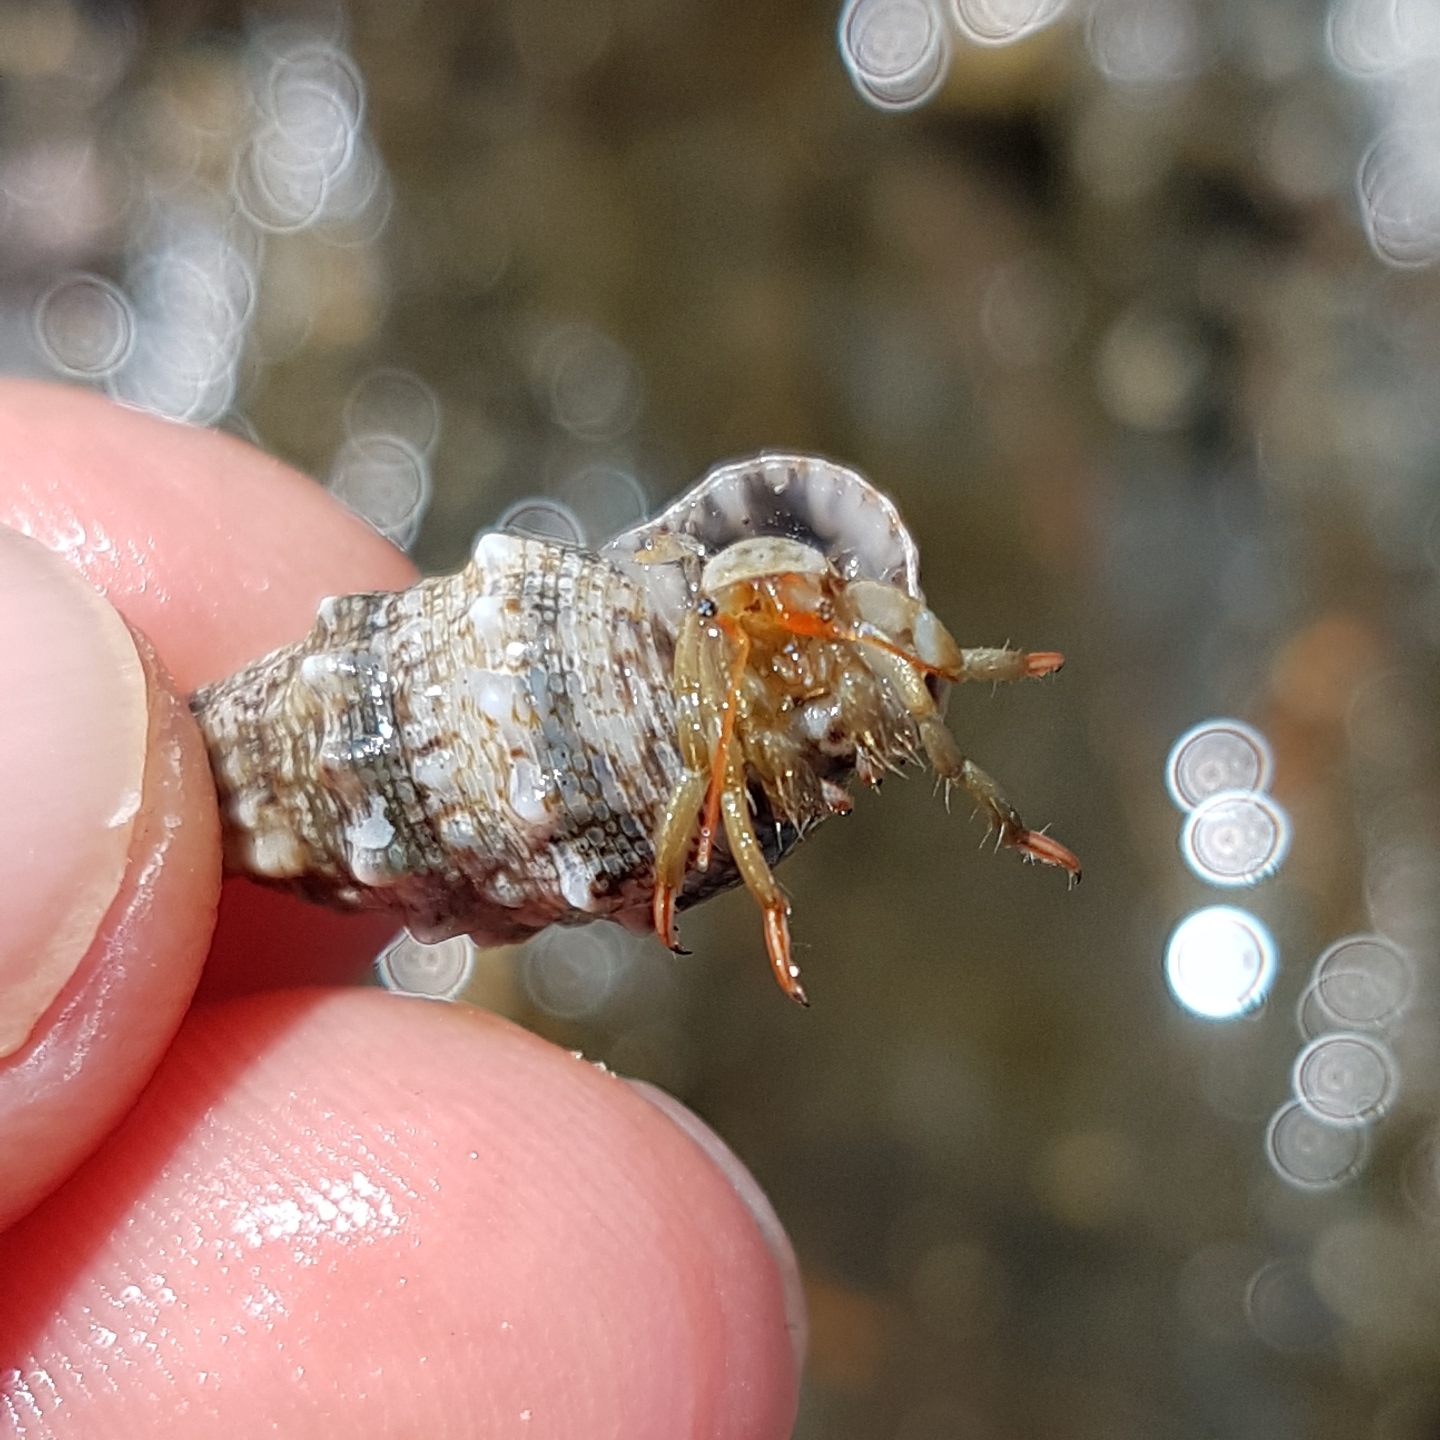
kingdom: Animalia
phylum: Arthropoda
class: Malacostraca
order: Decapoda
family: Diogenidae
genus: Clibanarius
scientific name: Clibanarius erythropus
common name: Hermit crab
